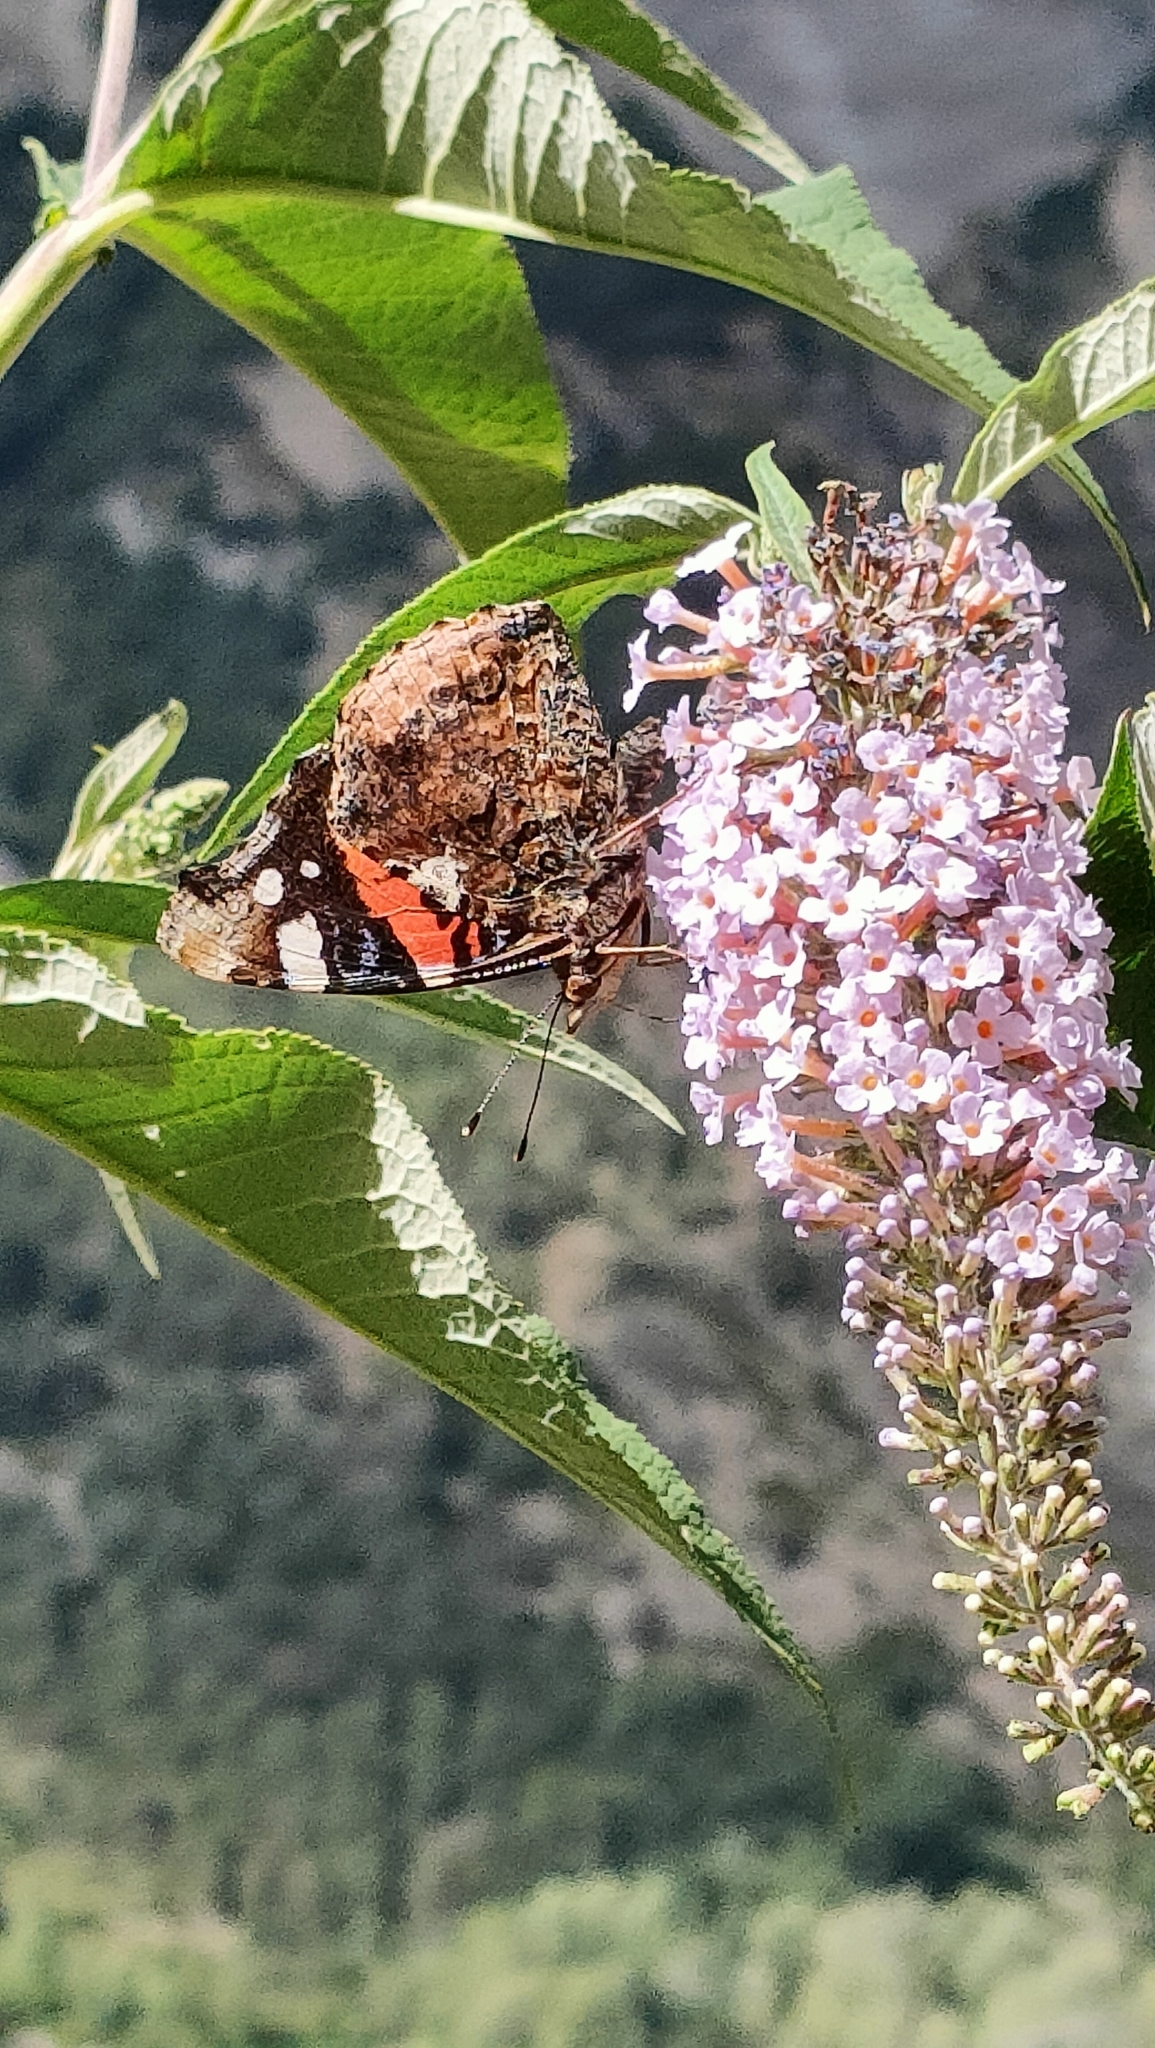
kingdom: Animalia
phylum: Arthropoda
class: Insecta
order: Lepidoptera
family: Nymphalidae
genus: Vanessa
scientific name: Vanessa atalanta
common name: Red admiral
